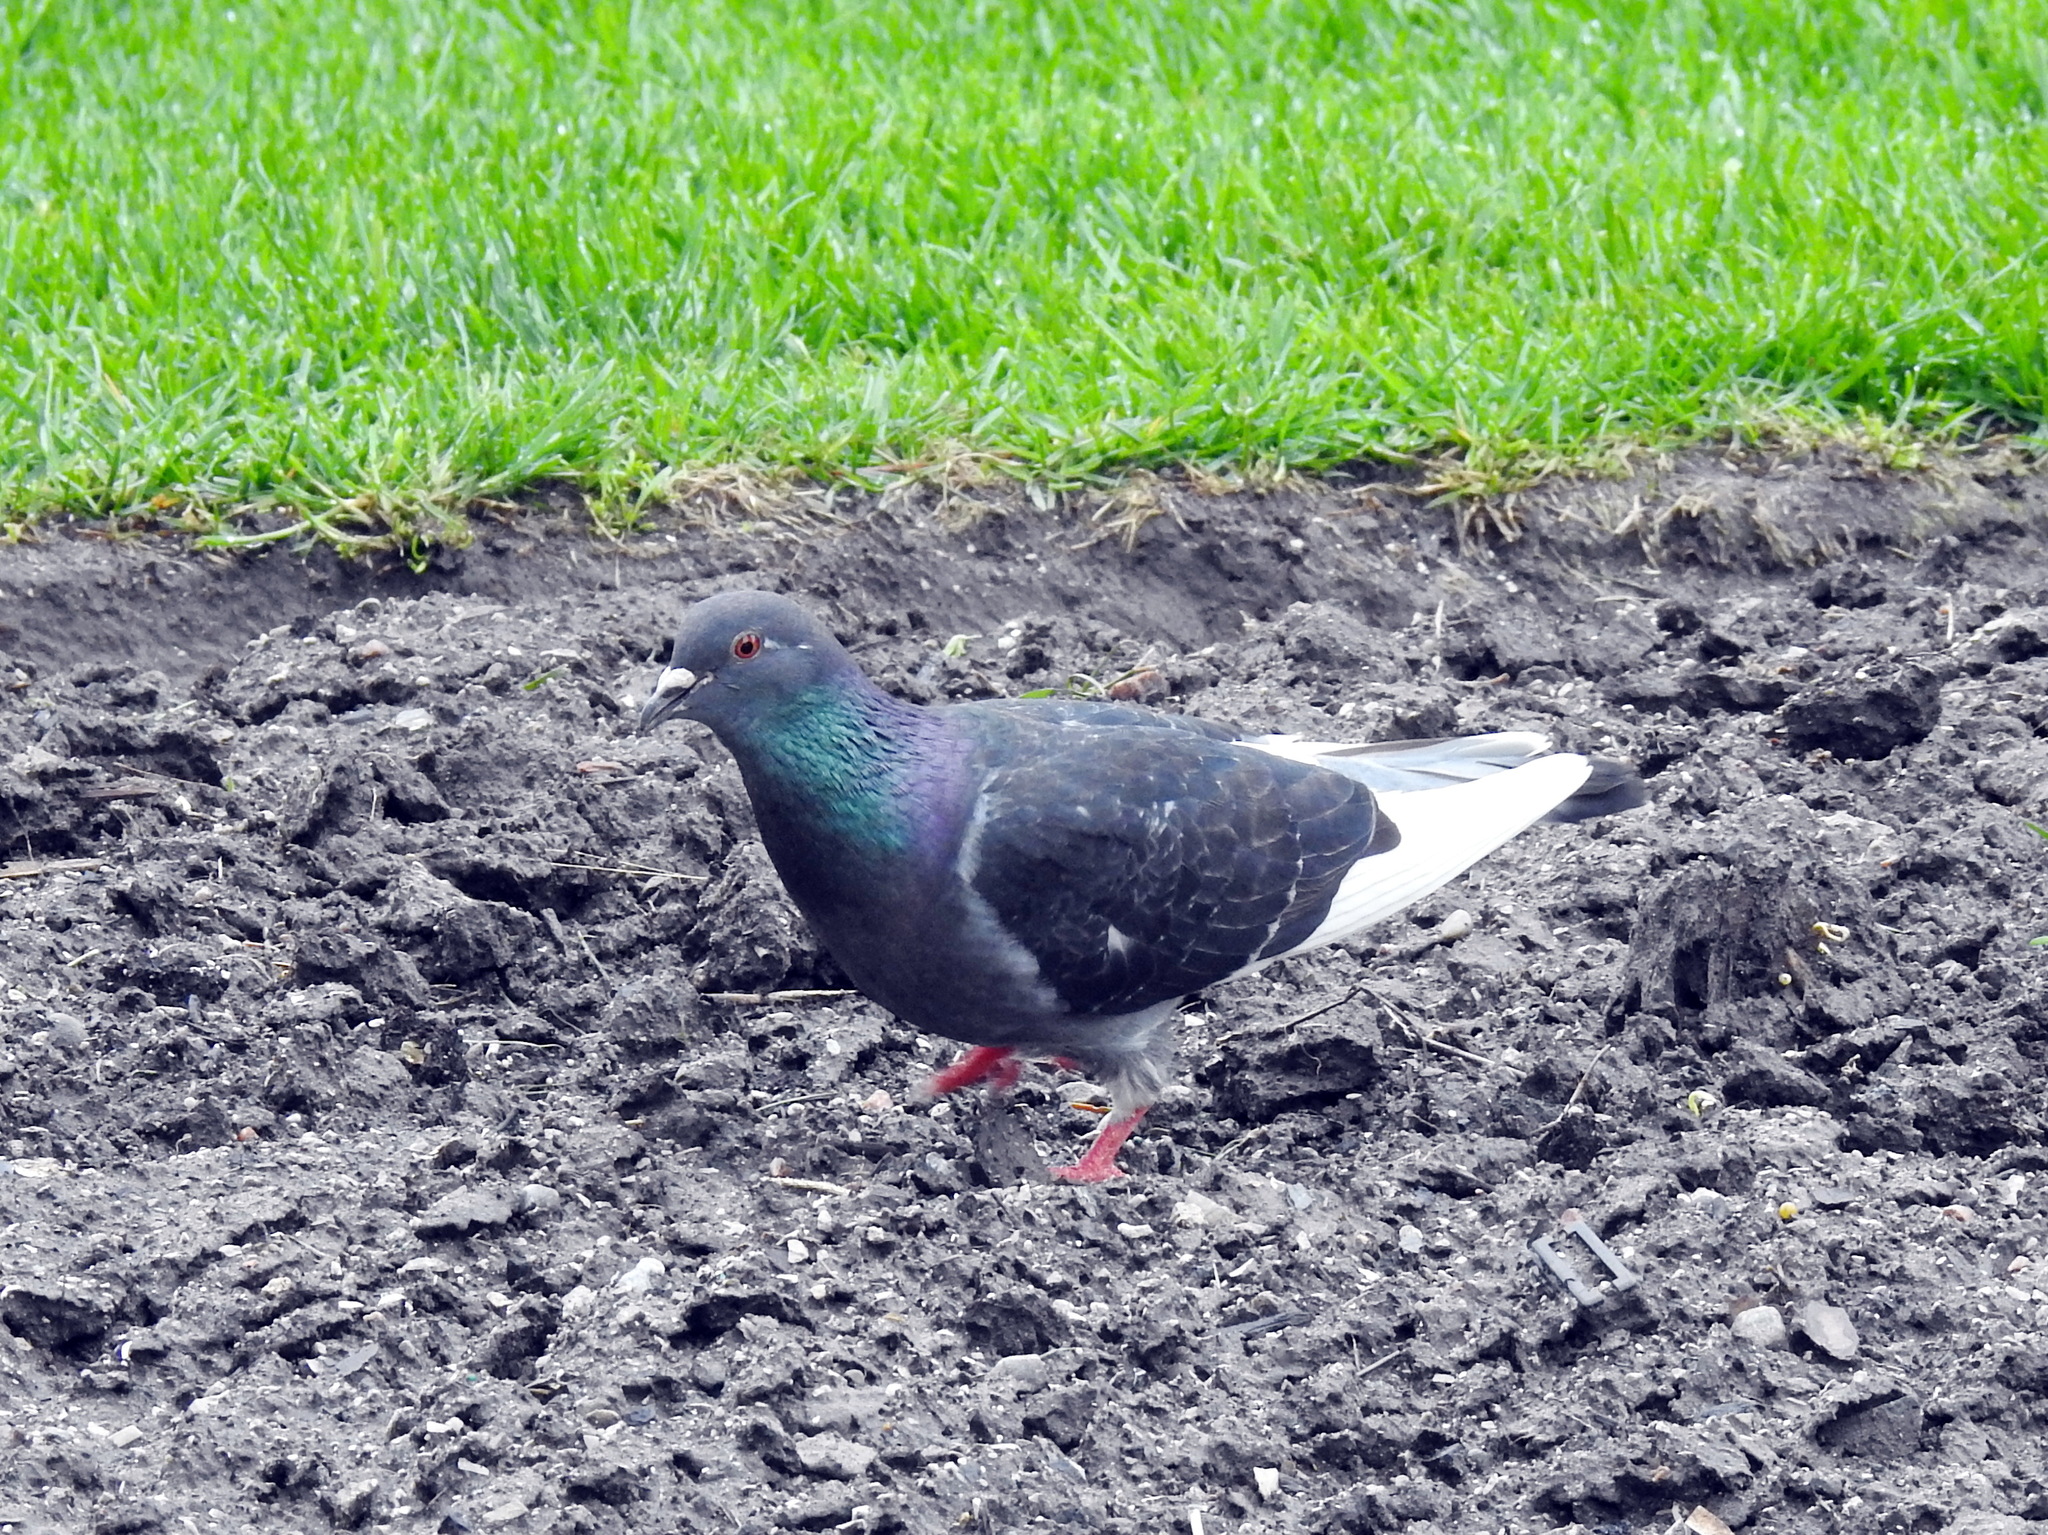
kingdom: Animalia
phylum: Chordata
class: Aves
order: Columbiformes
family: Columbidae
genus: Columba
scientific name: Columba livia
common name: Rock pigeon
